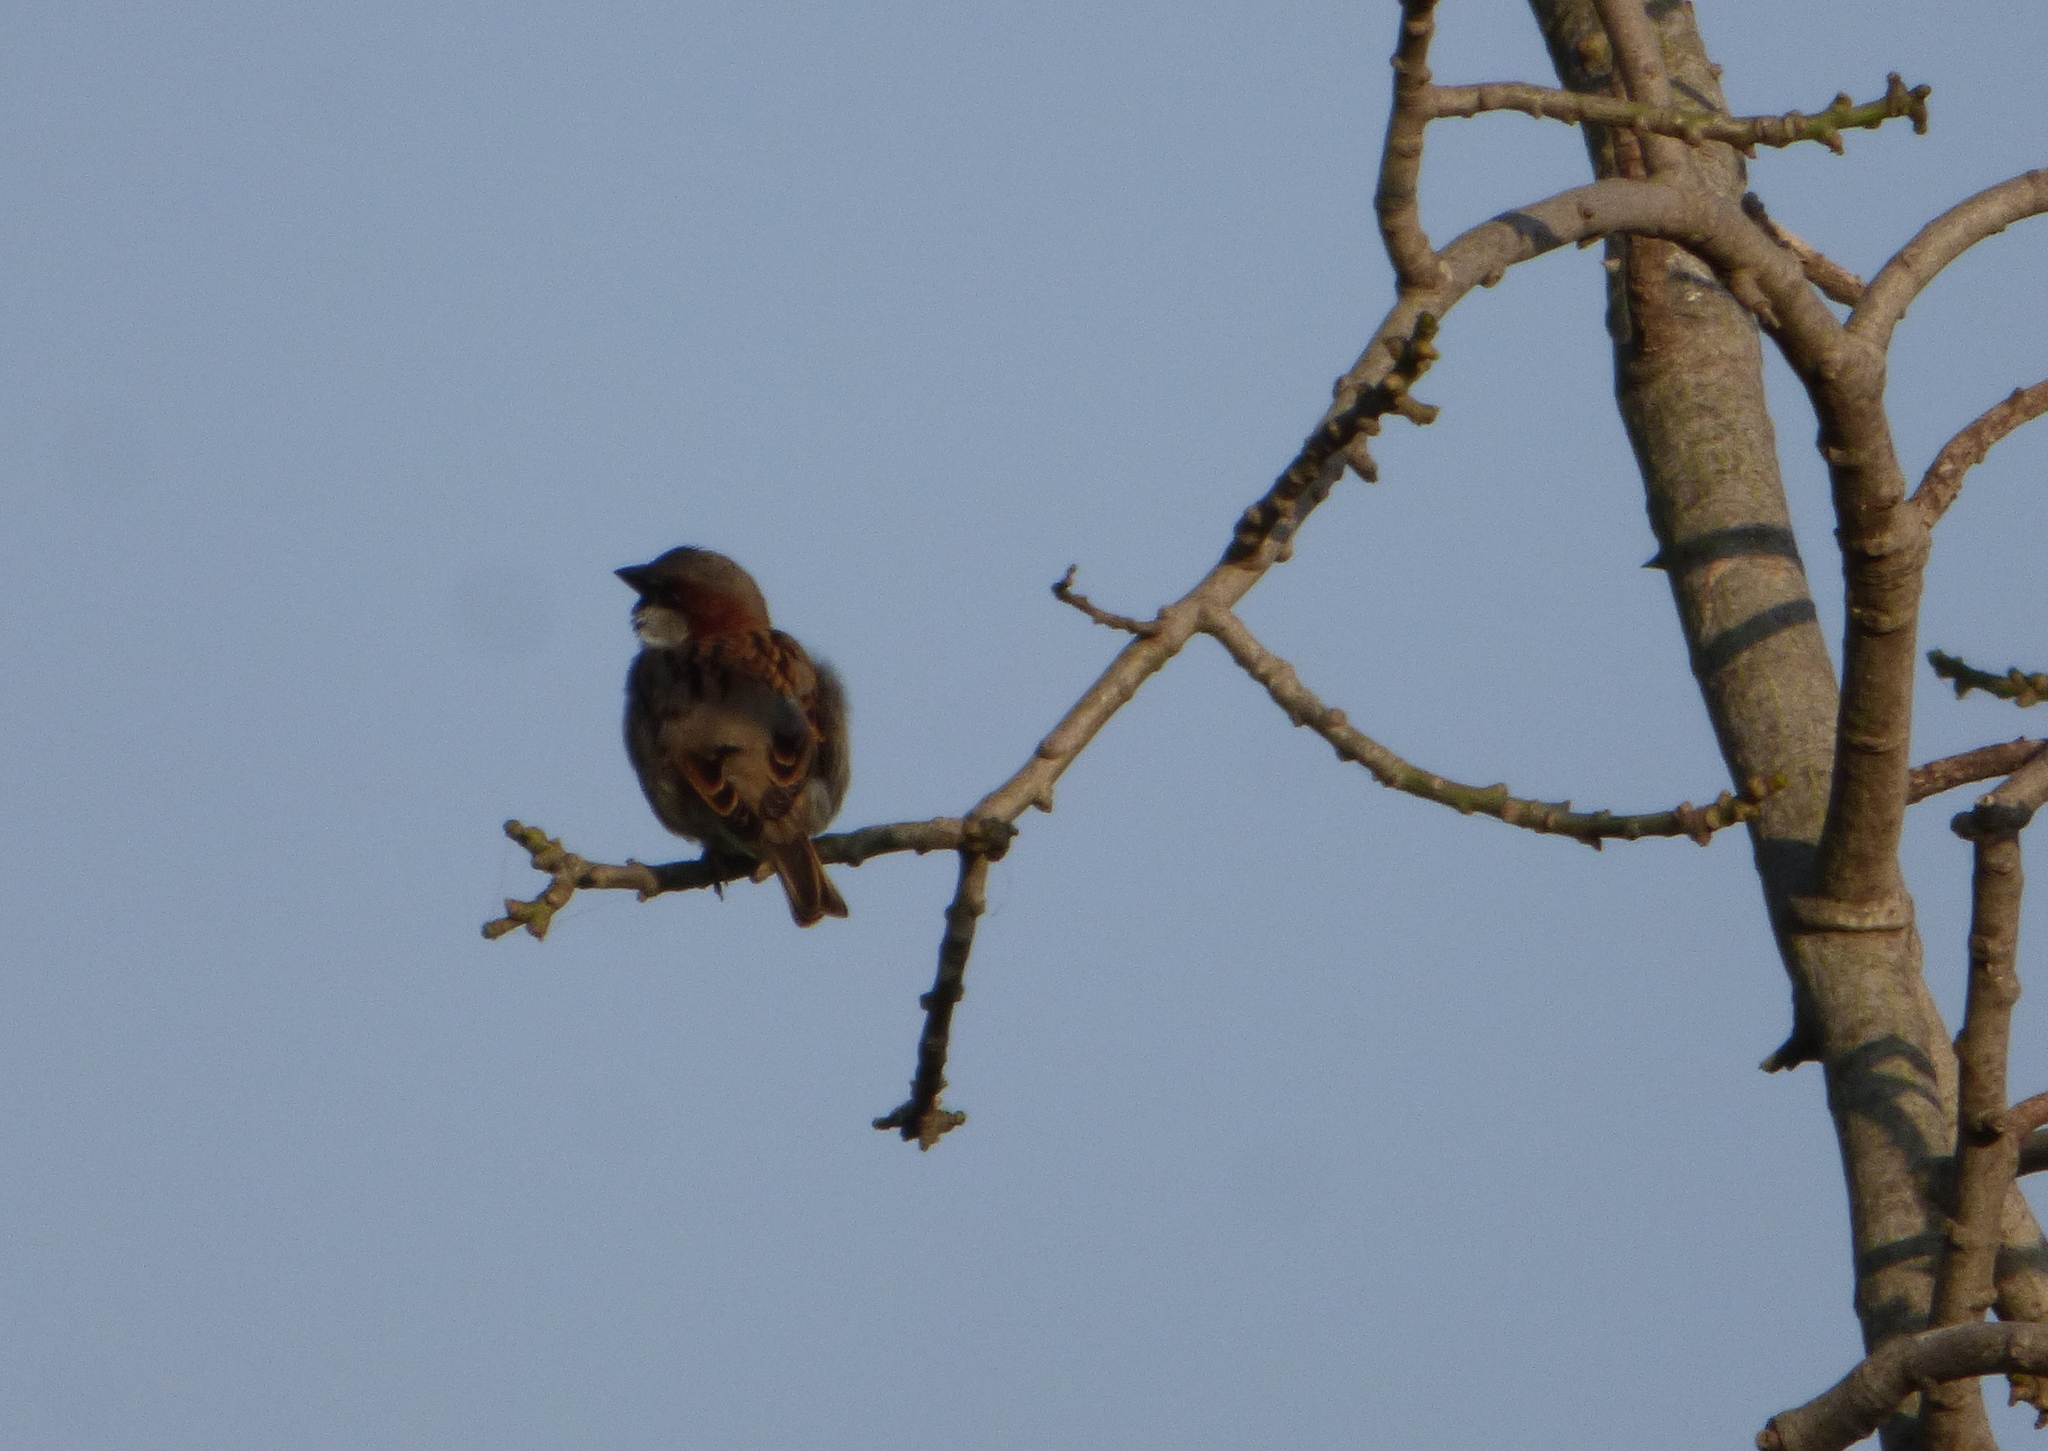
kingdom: Animalia
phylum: Chordata
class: Aves
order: Passeriformes
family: Passeridae
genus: Passer
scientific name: Passer domesticus
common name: House sparrow
